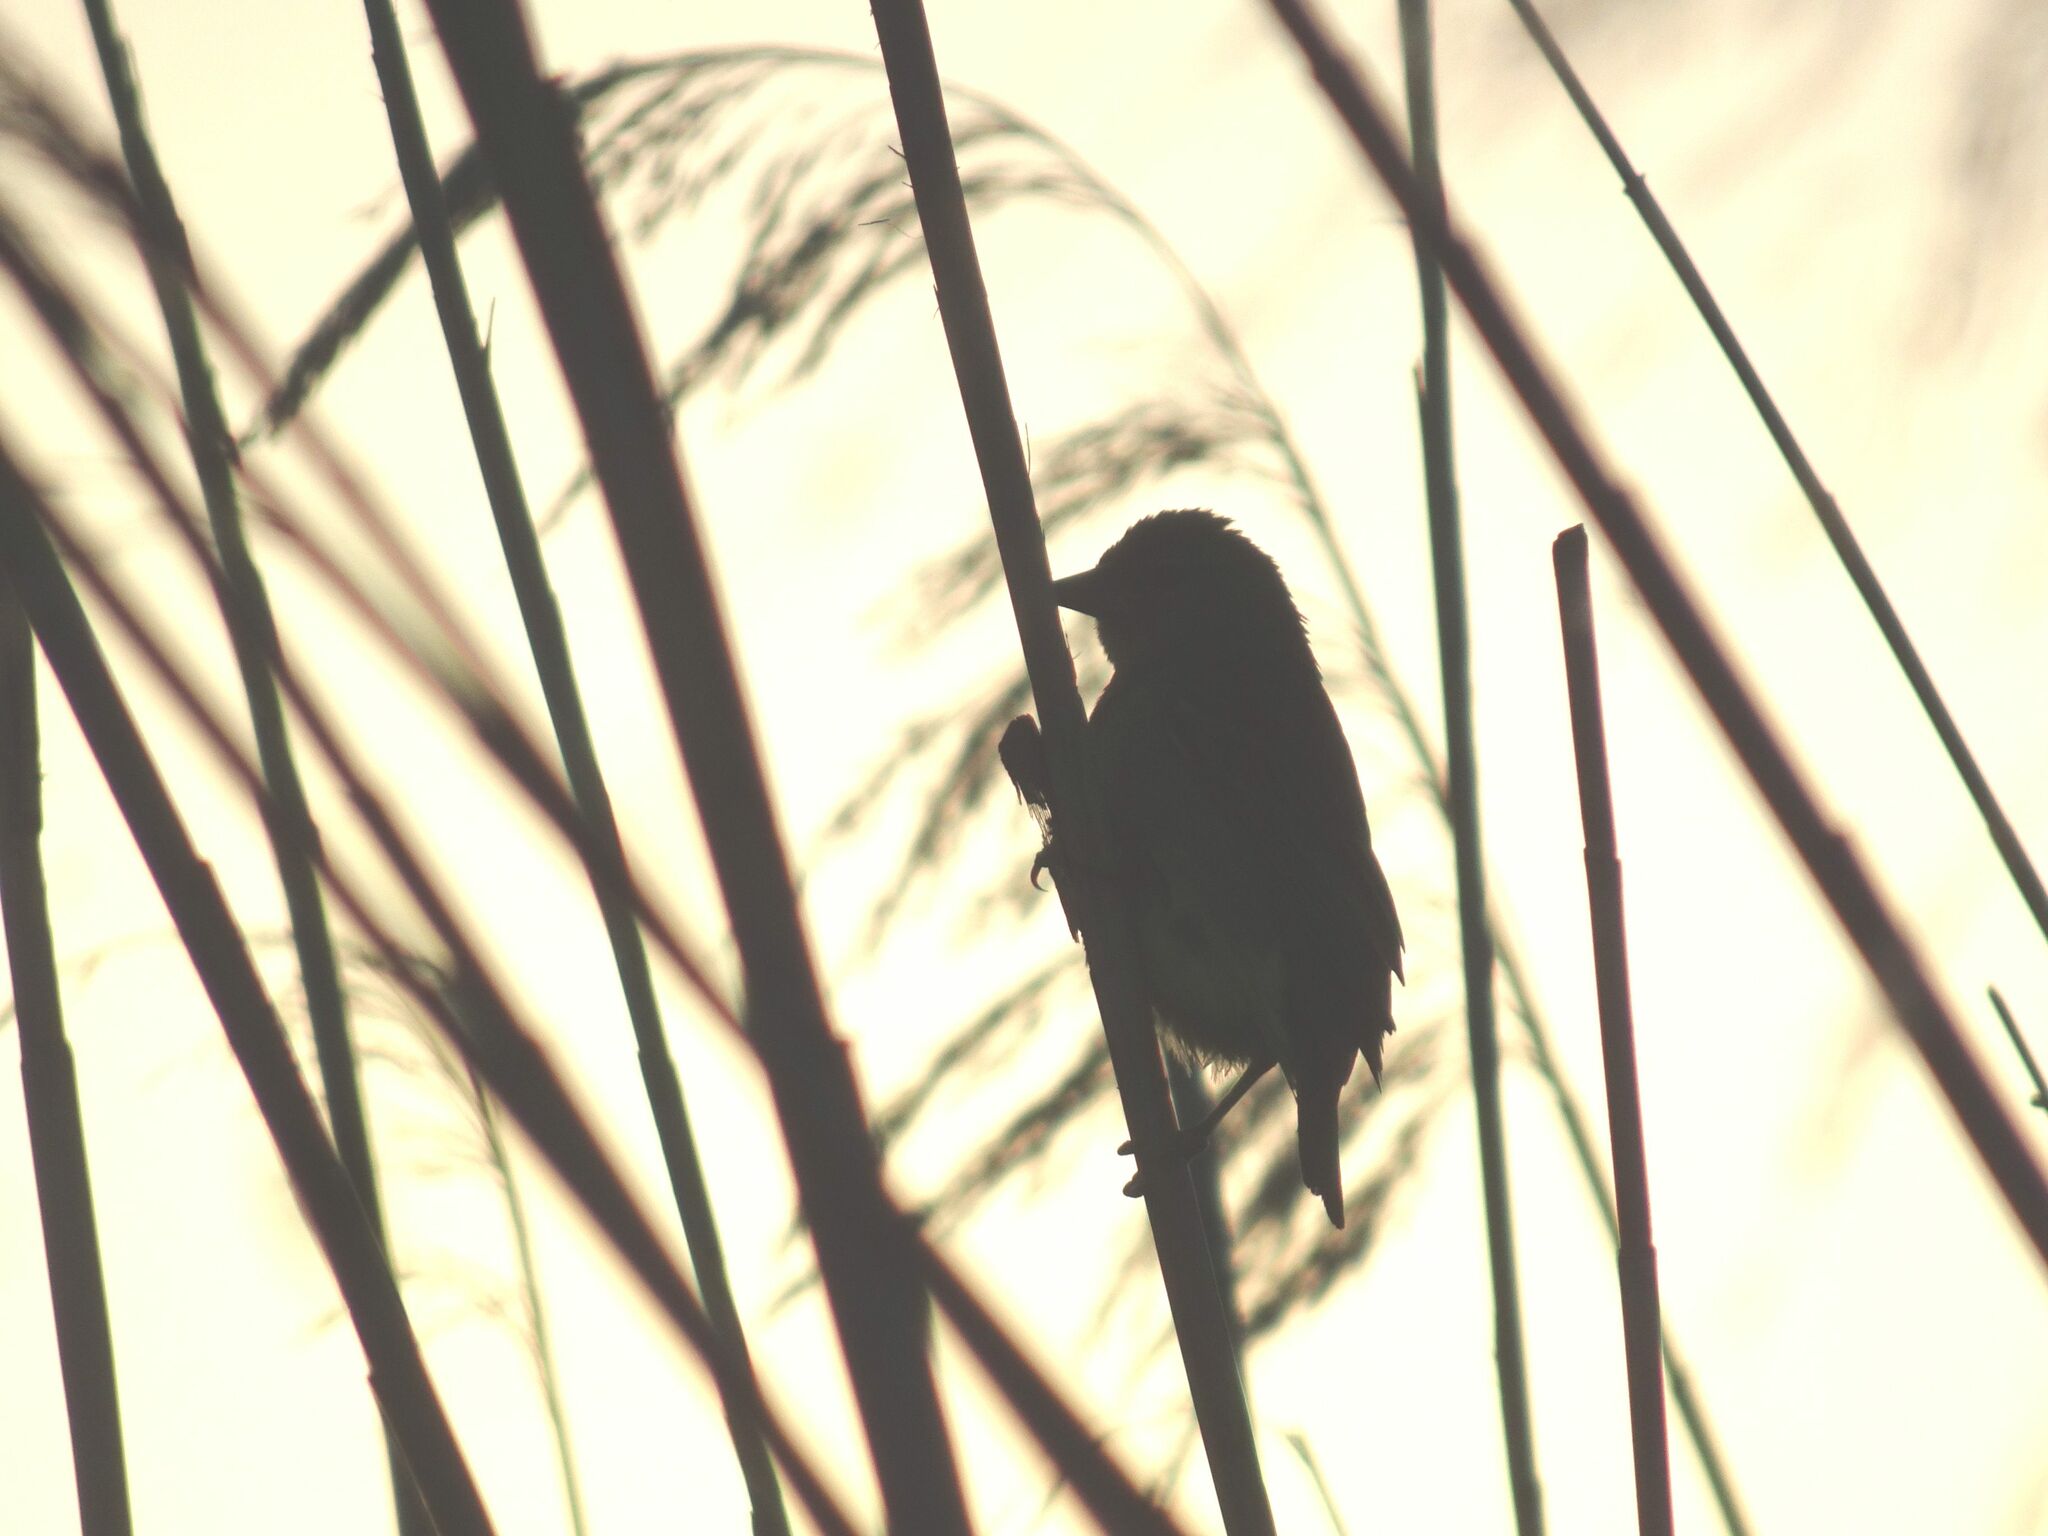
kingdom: Animalia
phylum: Chordata
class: Aves
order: Passeriformes
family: Ploceidae
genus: Ploceus
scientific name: Ploceus capensis
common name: Cape weaver
